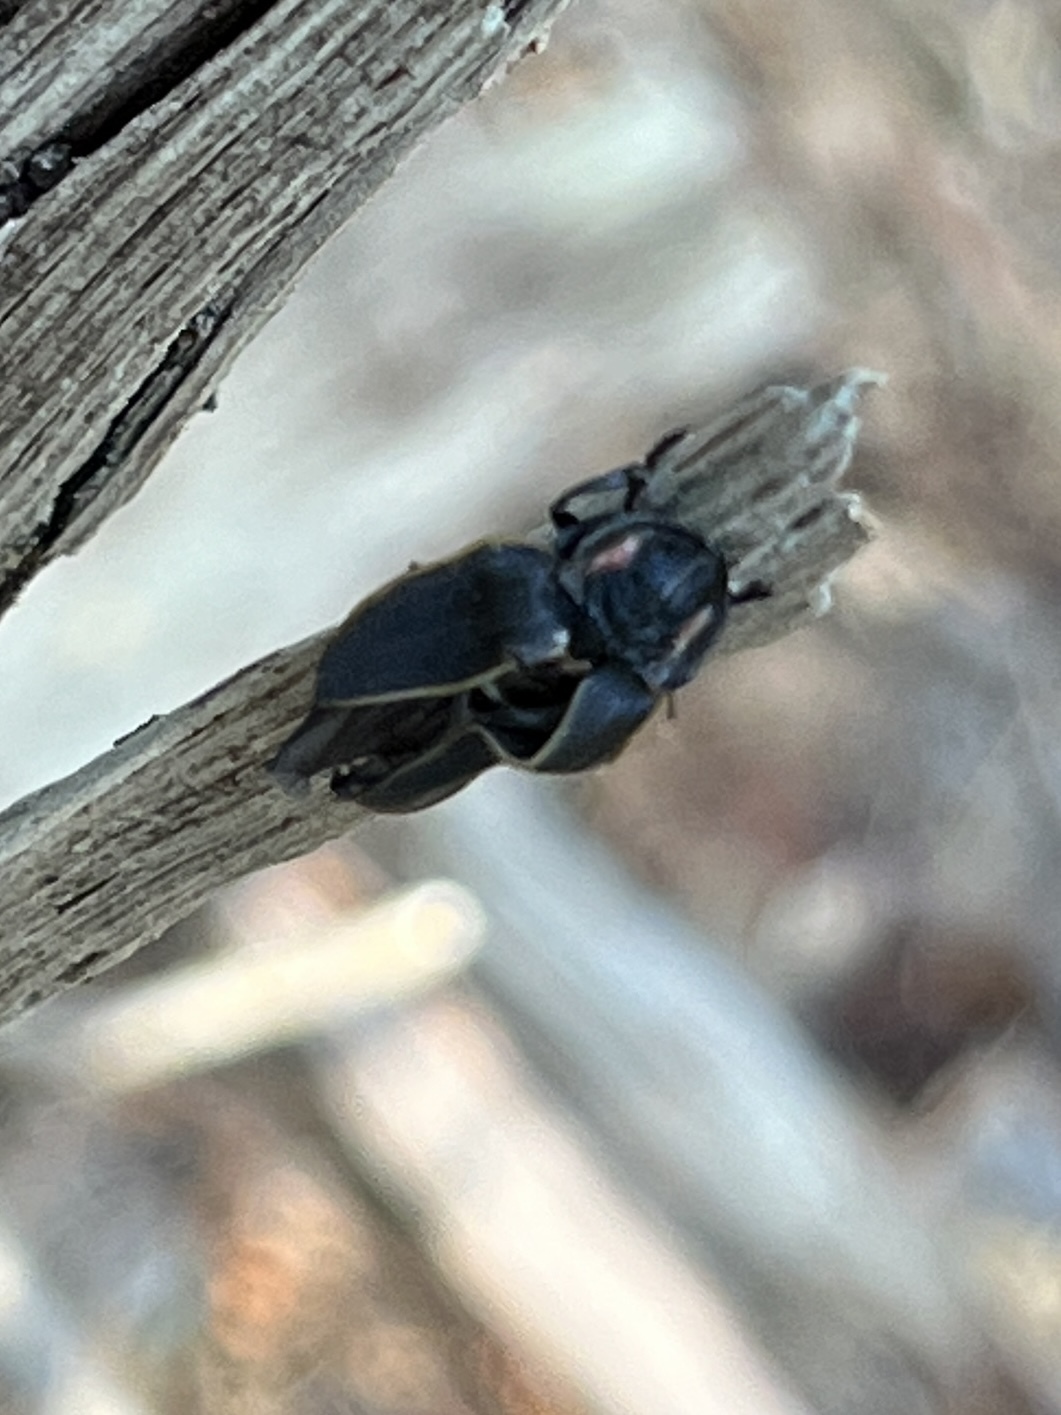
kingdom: Animalia
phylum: Arthropoda
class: Insecta
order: Coleoptera
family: Lampyridae
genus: Pyractomena
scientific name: Pyractomena borealis
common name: Northern firefly
